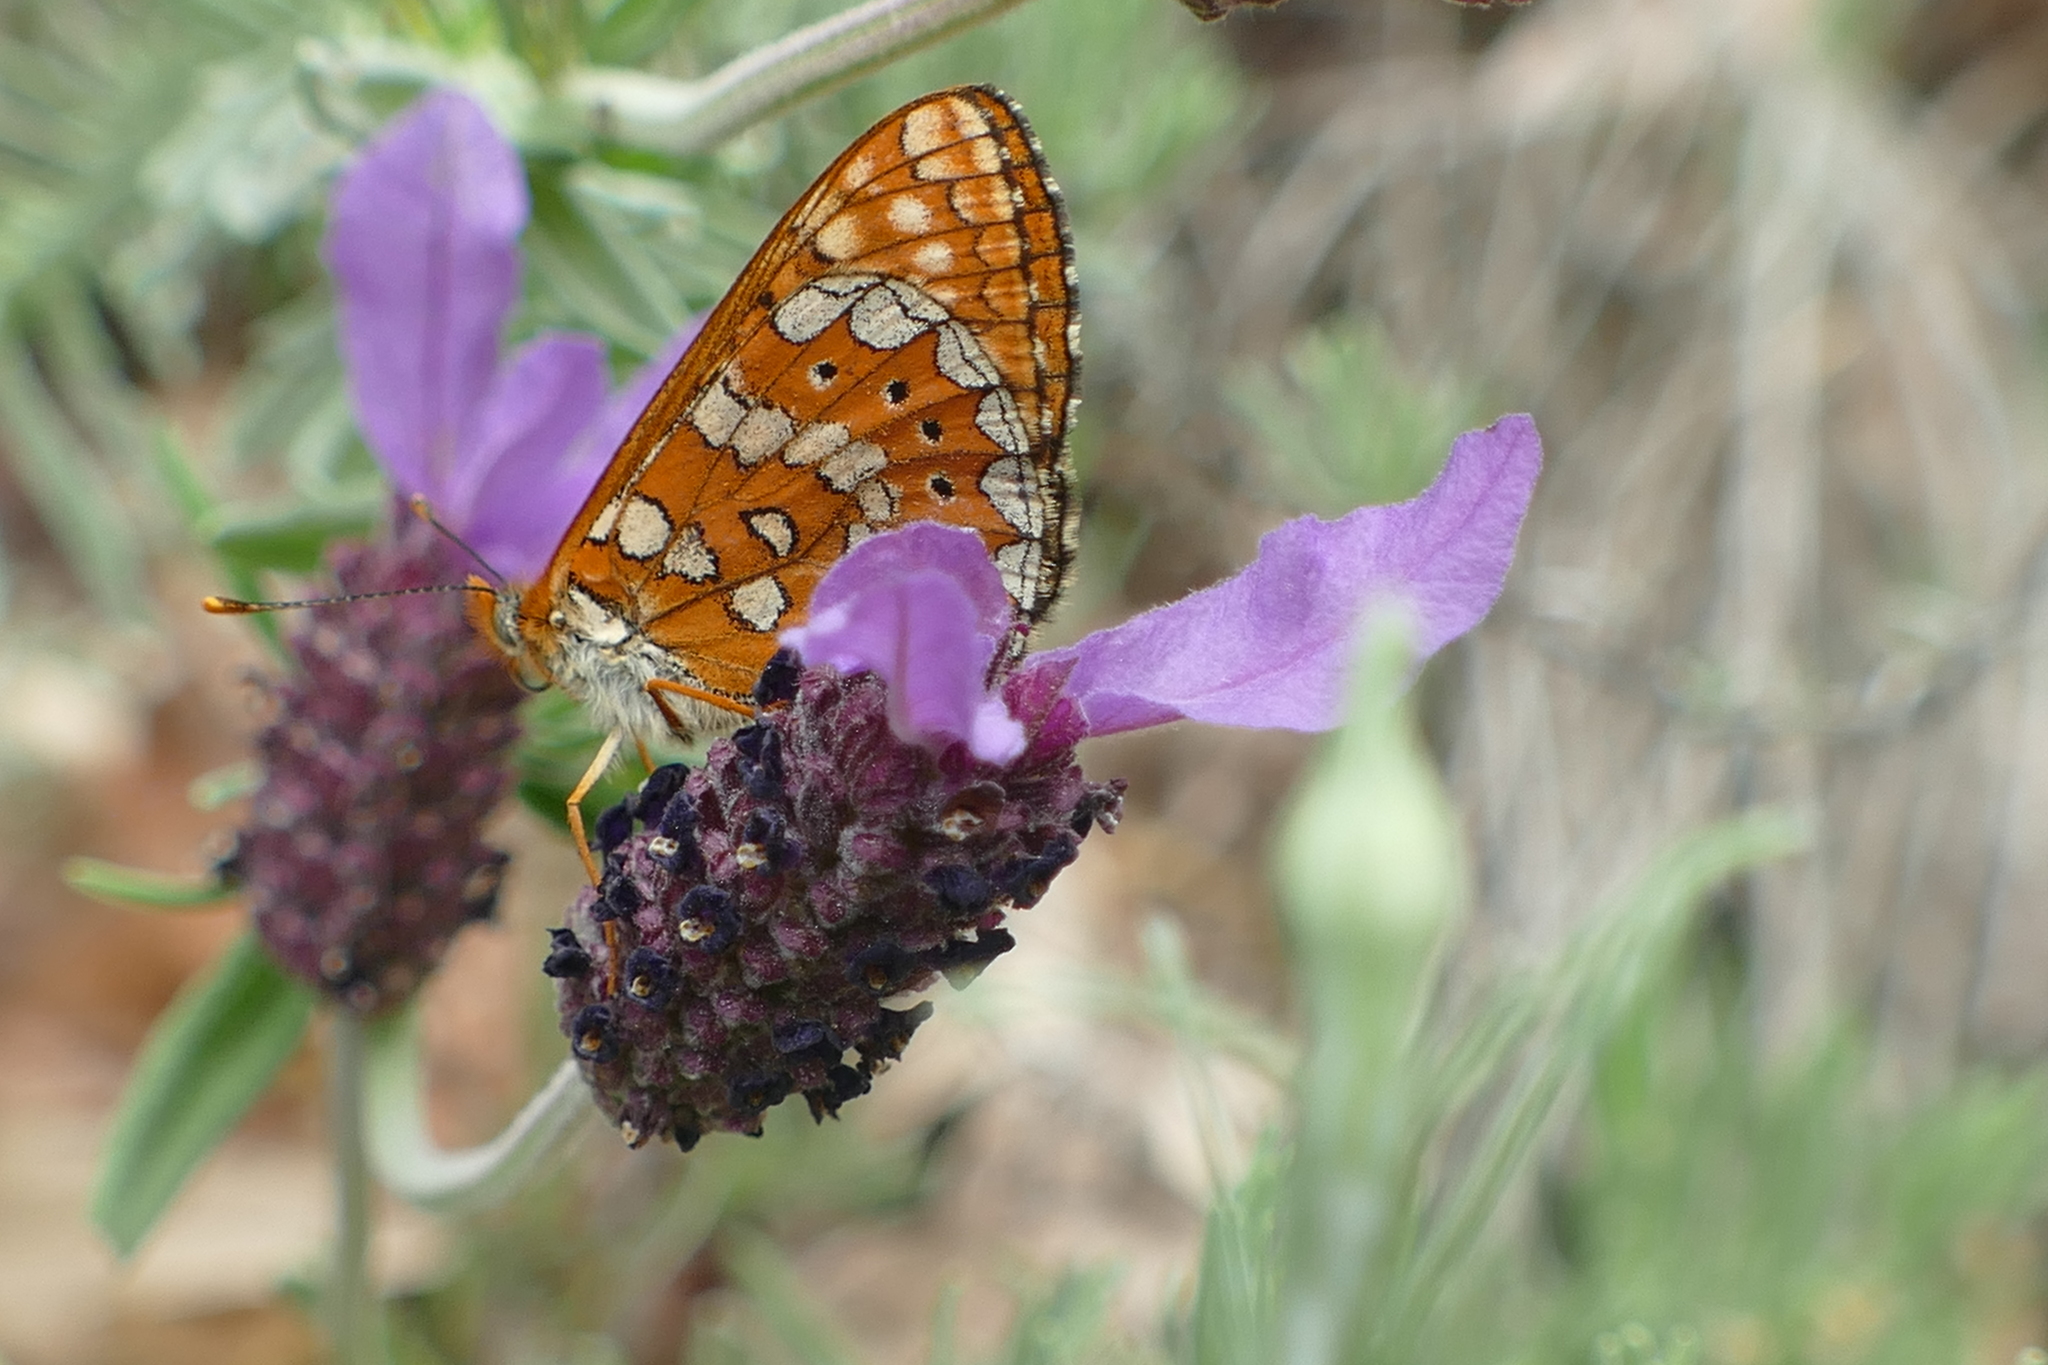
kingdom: Animalia
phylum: Arthropoda
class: Insecta
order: Lepidoptera
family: Nymphalidae
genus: Euphydryas
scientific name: Euphydryas aurinia
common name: Marsh fritillary
